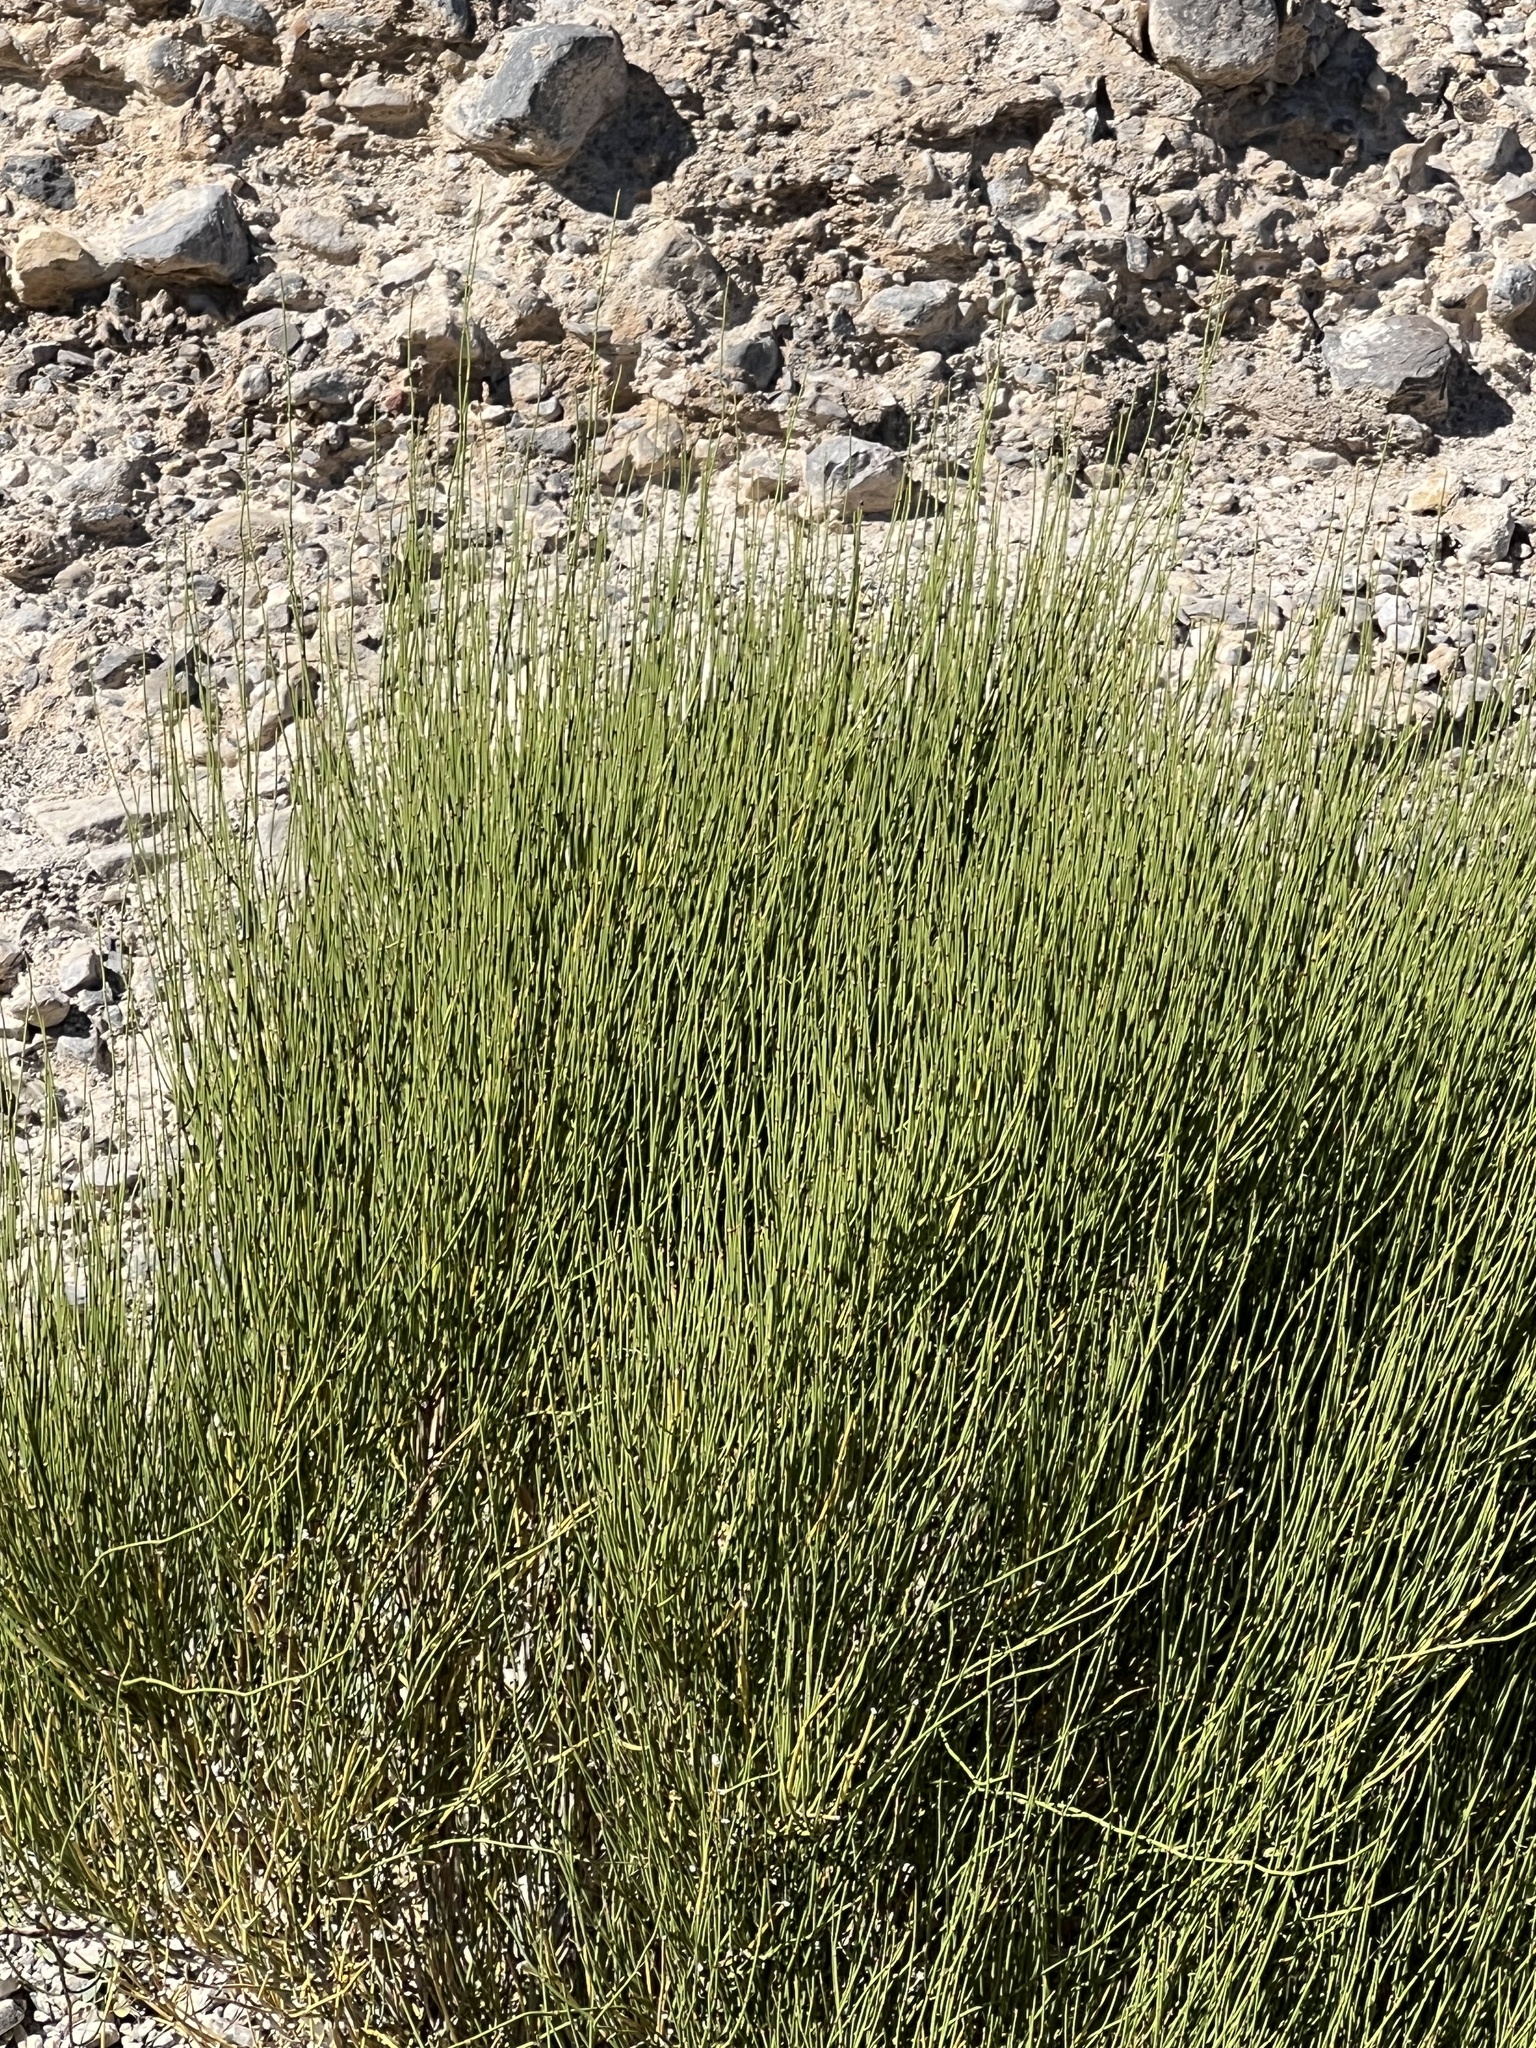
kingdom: Plantae
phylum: Tracheophyta
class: Gnetopsida
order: Ephedrales
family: Ephedraceae
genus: Ephedra
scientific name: Ephedra viridis
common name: Green ephedra
